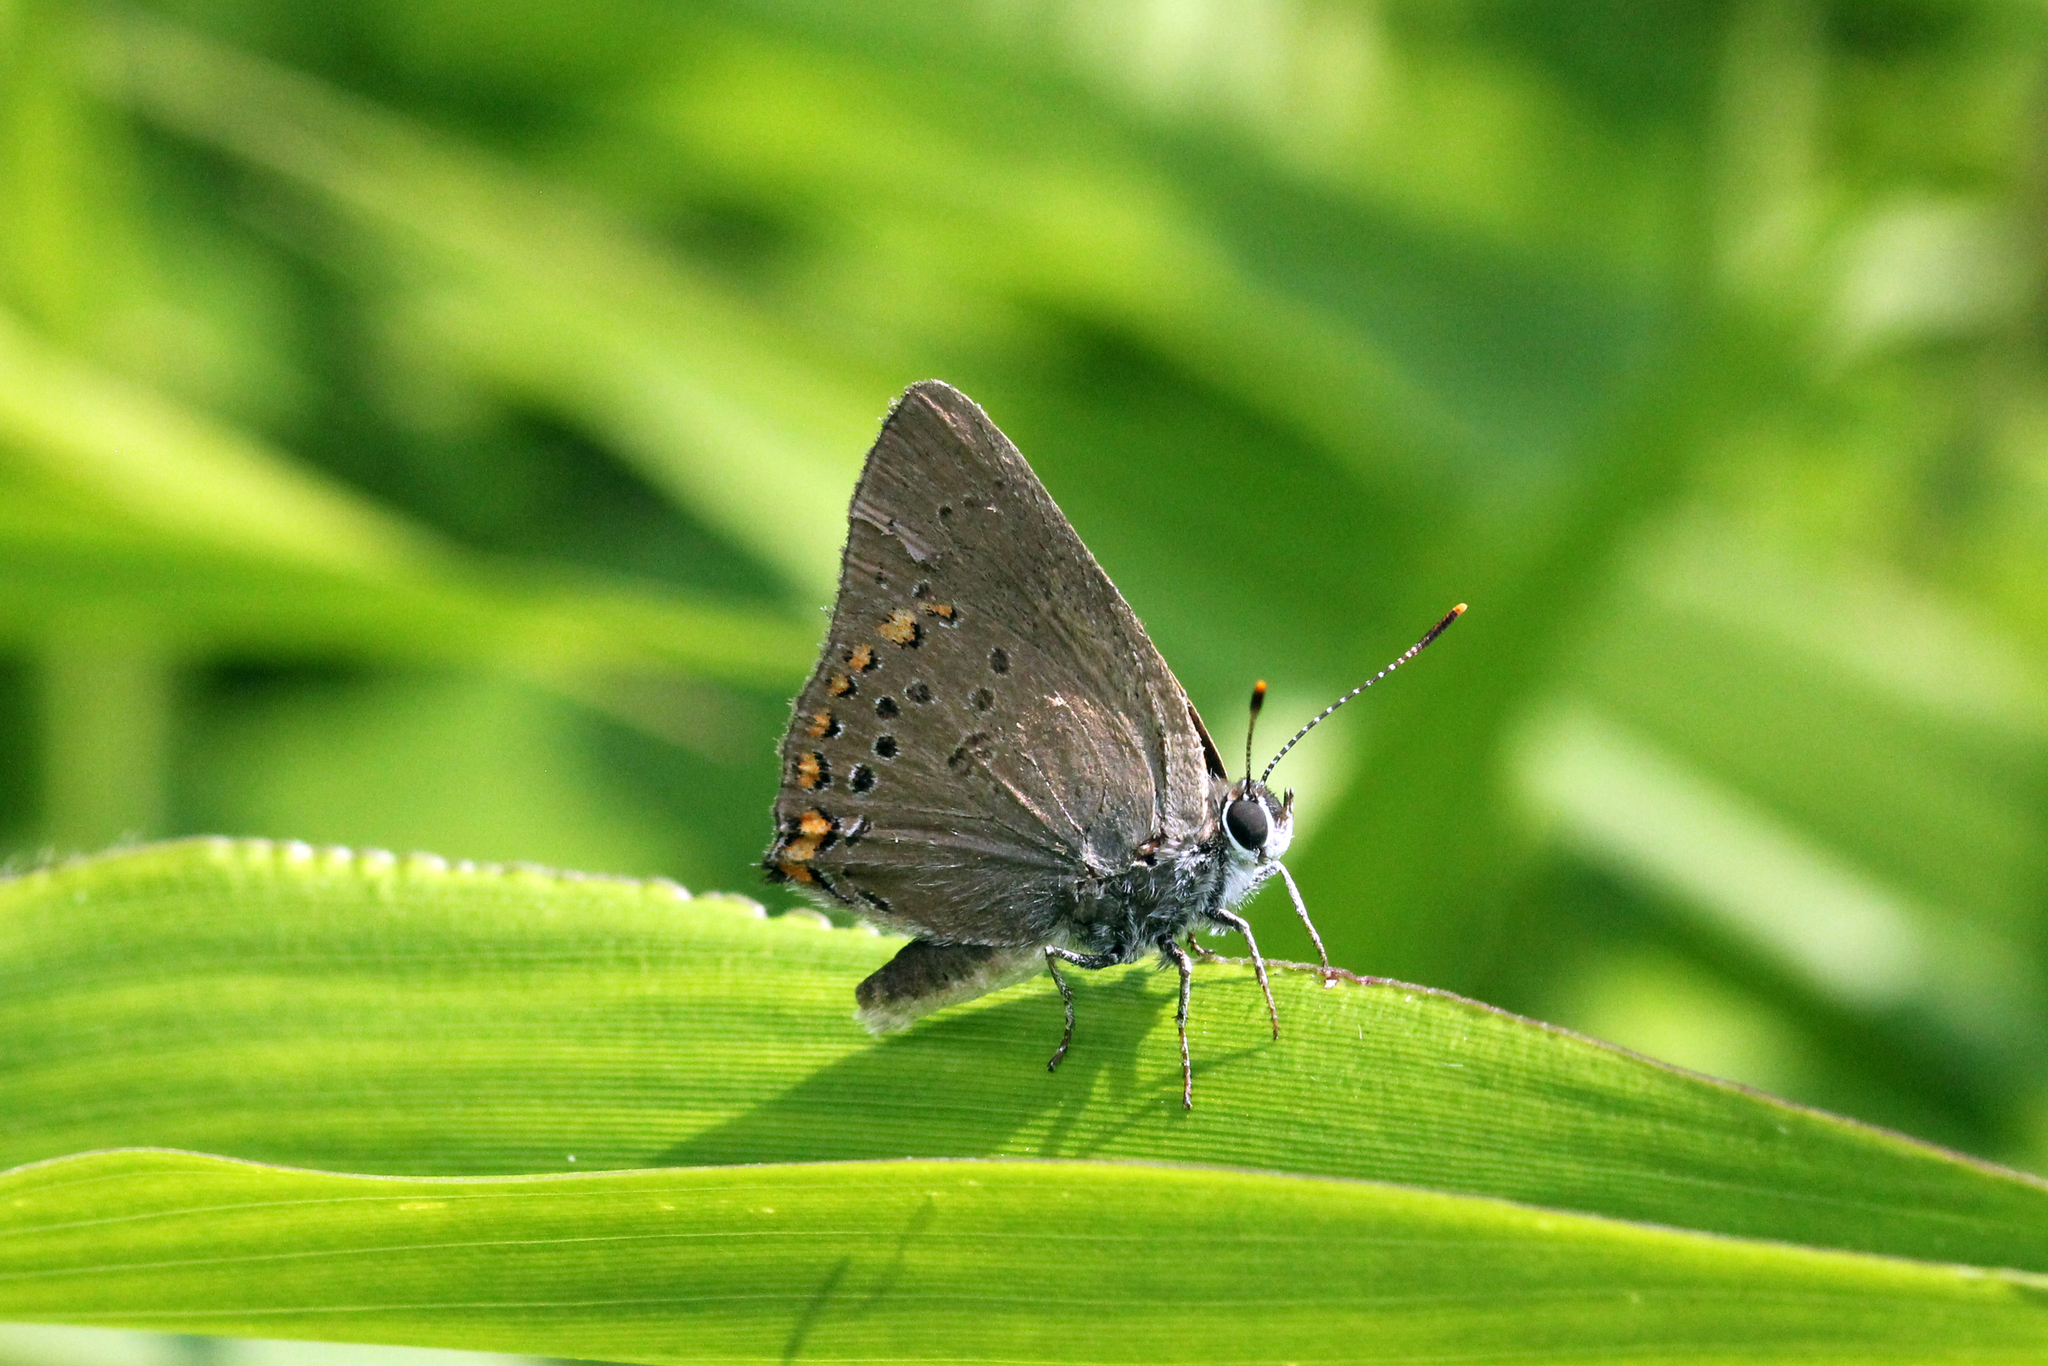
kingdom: Animalia
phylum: Arthropoda
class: Insecta
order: Lepidoptera
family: Lycaenidae
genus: Harkenclenus
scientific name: Harkenclenus titus
